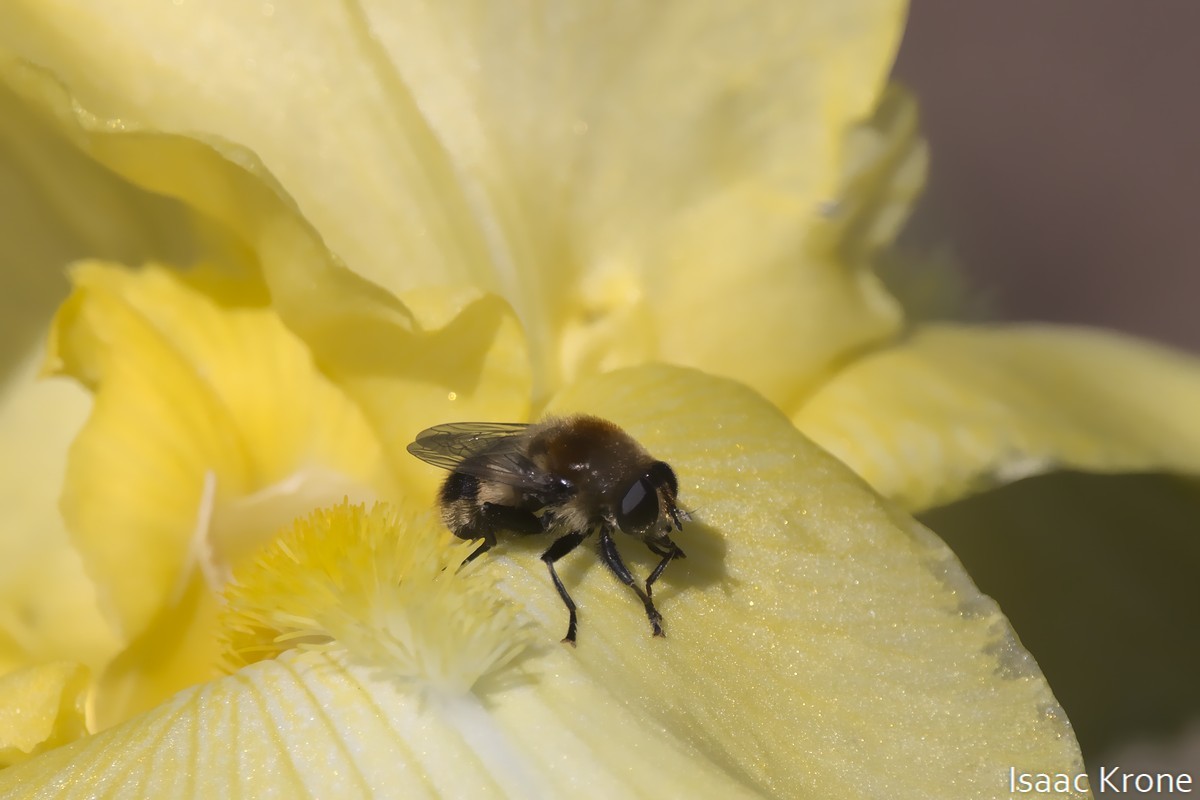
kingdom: Animalia
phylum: Arthropoda
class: Insecta
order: Diptera
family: Syrphidae
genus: Merodon
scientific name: Merodon equestris
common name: Greater bulb-fly
